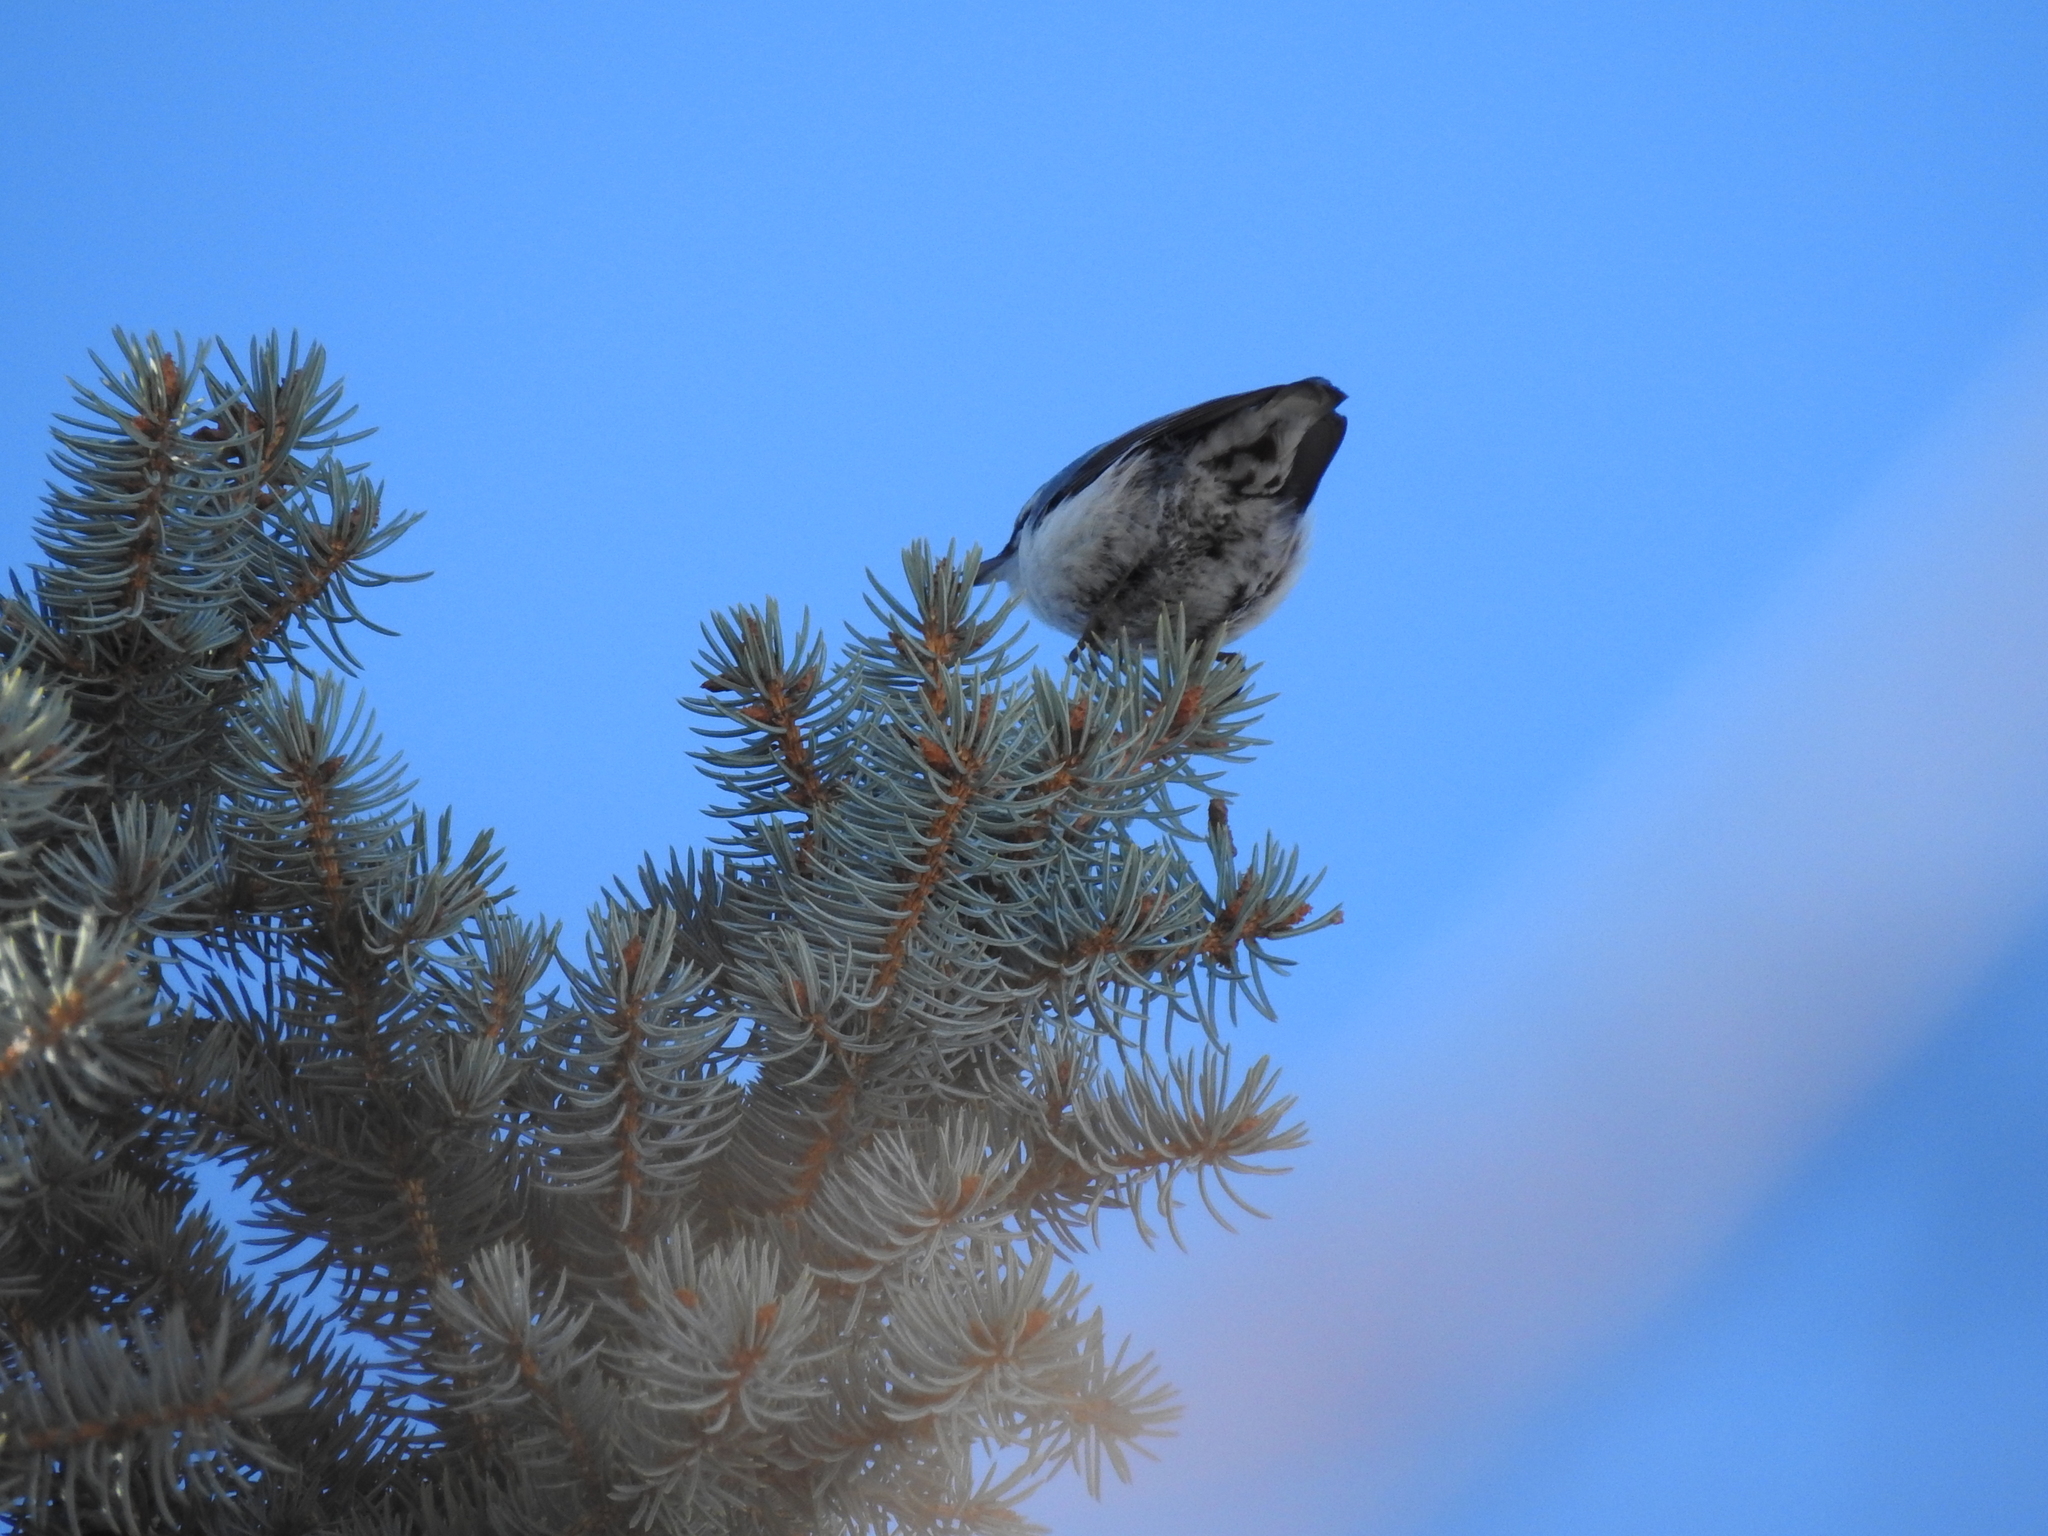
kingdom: Animalia
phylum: Chordata
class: Aves
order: Passeriformes
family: Sittidae
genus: Sitta
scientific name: Sitta europaea
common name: Eurasian nuthatch
